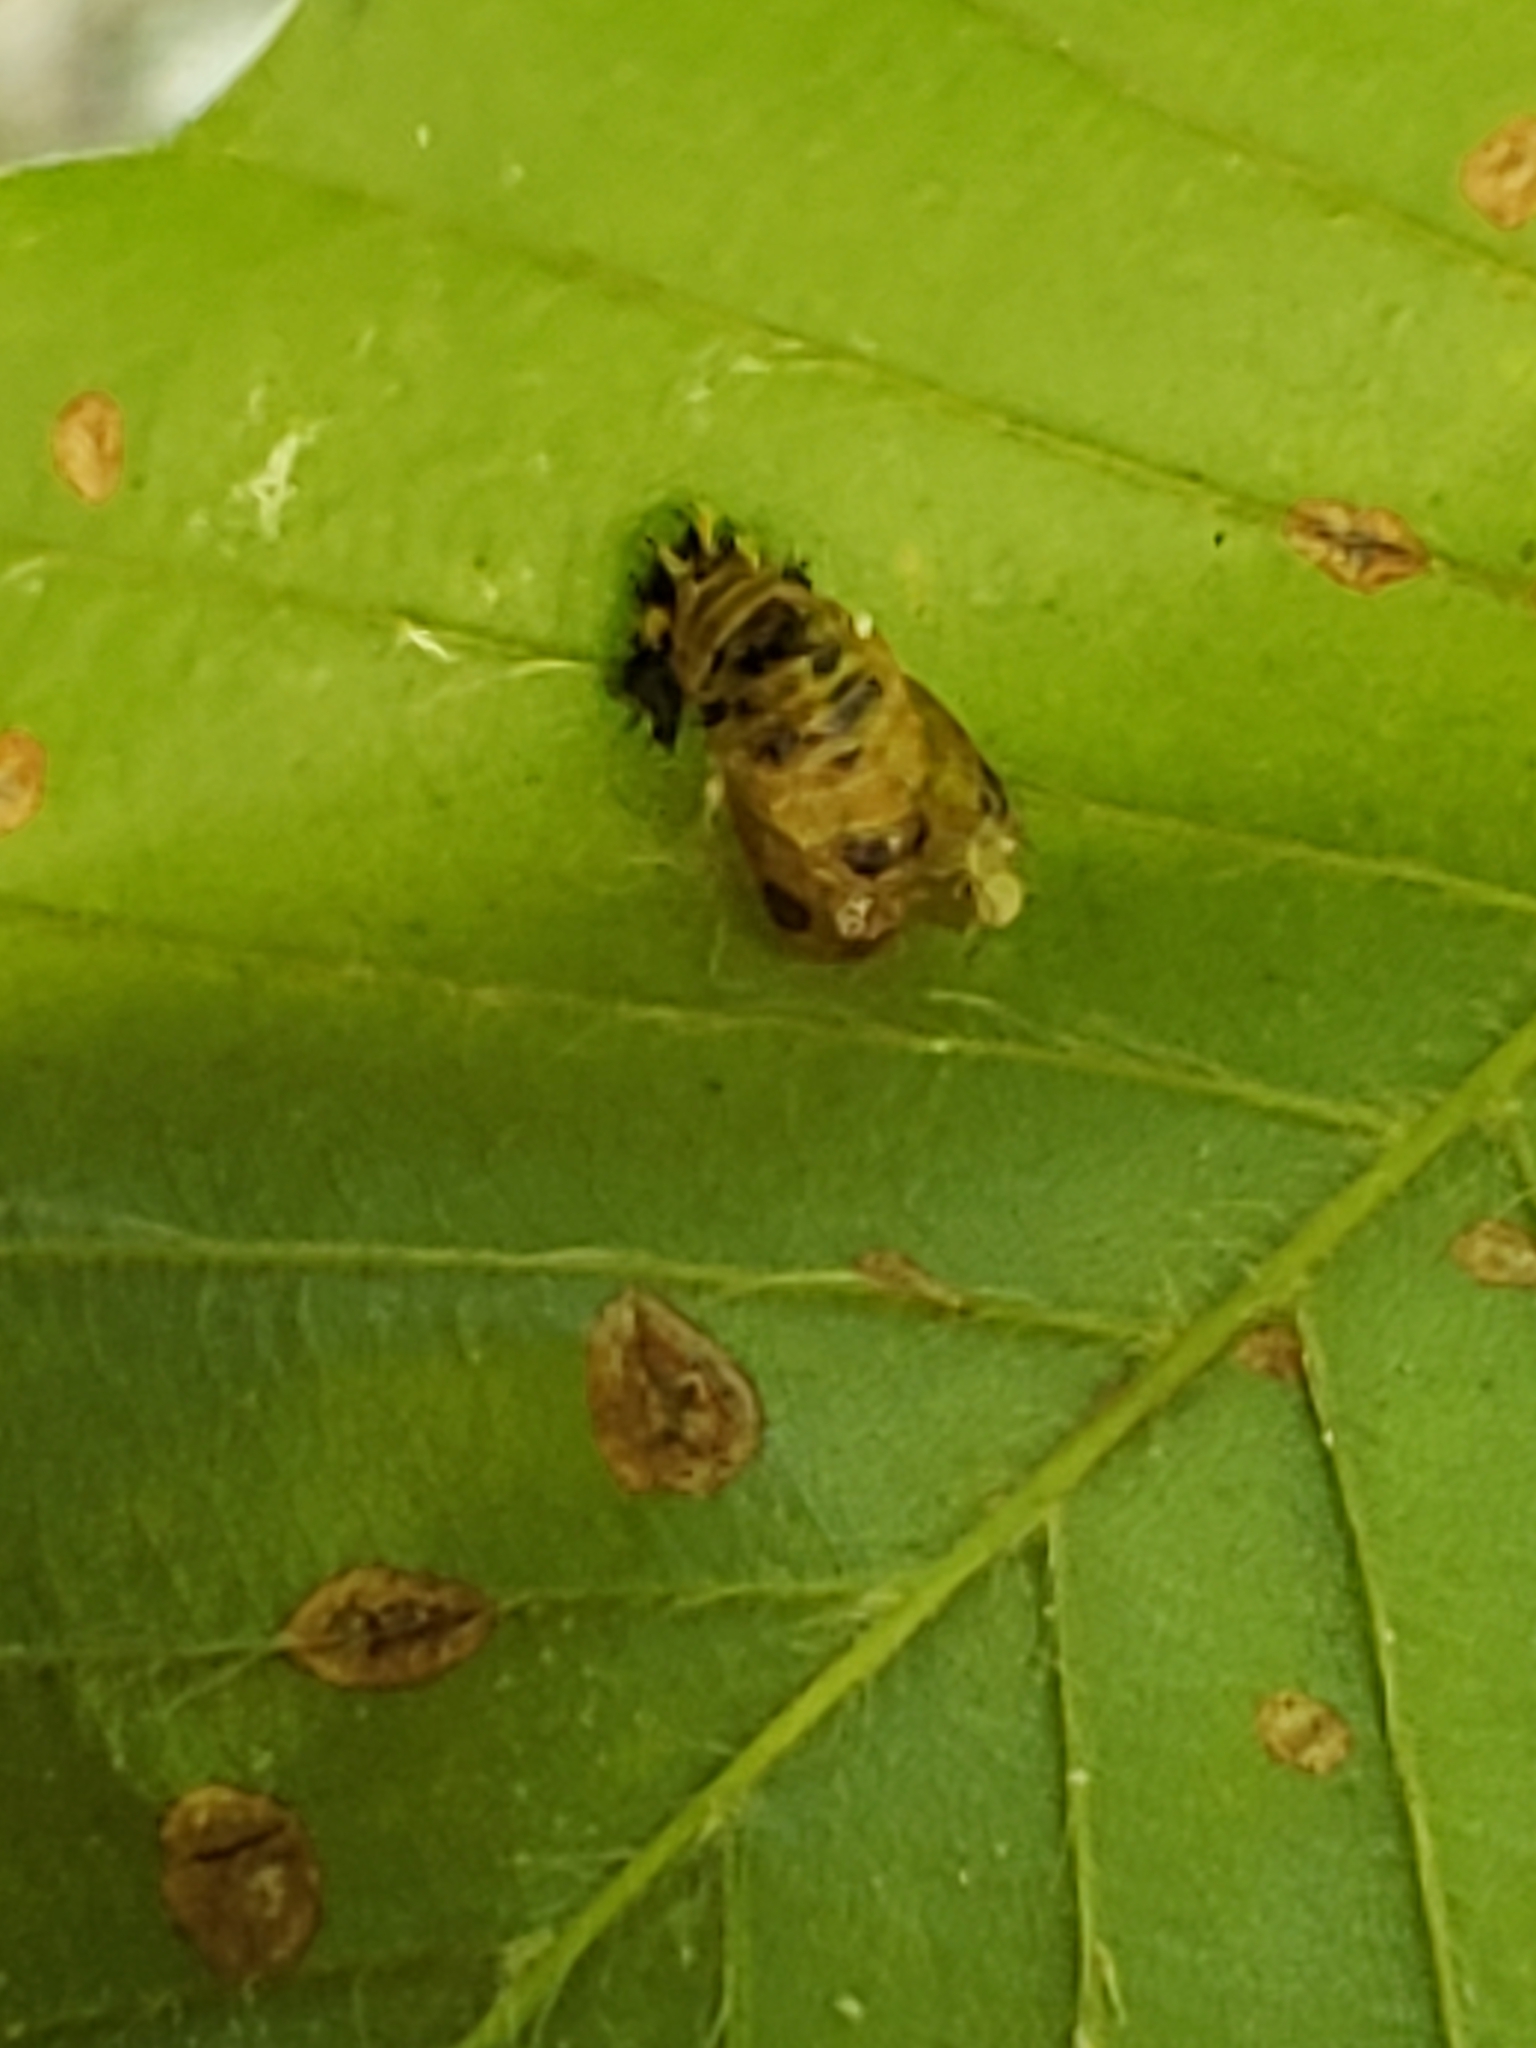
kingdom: Animalia
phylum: Arthropoda
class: Insecta
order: Coleoptera
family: Coccinellidae
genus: Harmonia
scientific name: Harmonia axyridis
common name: Harlequin ladybird
